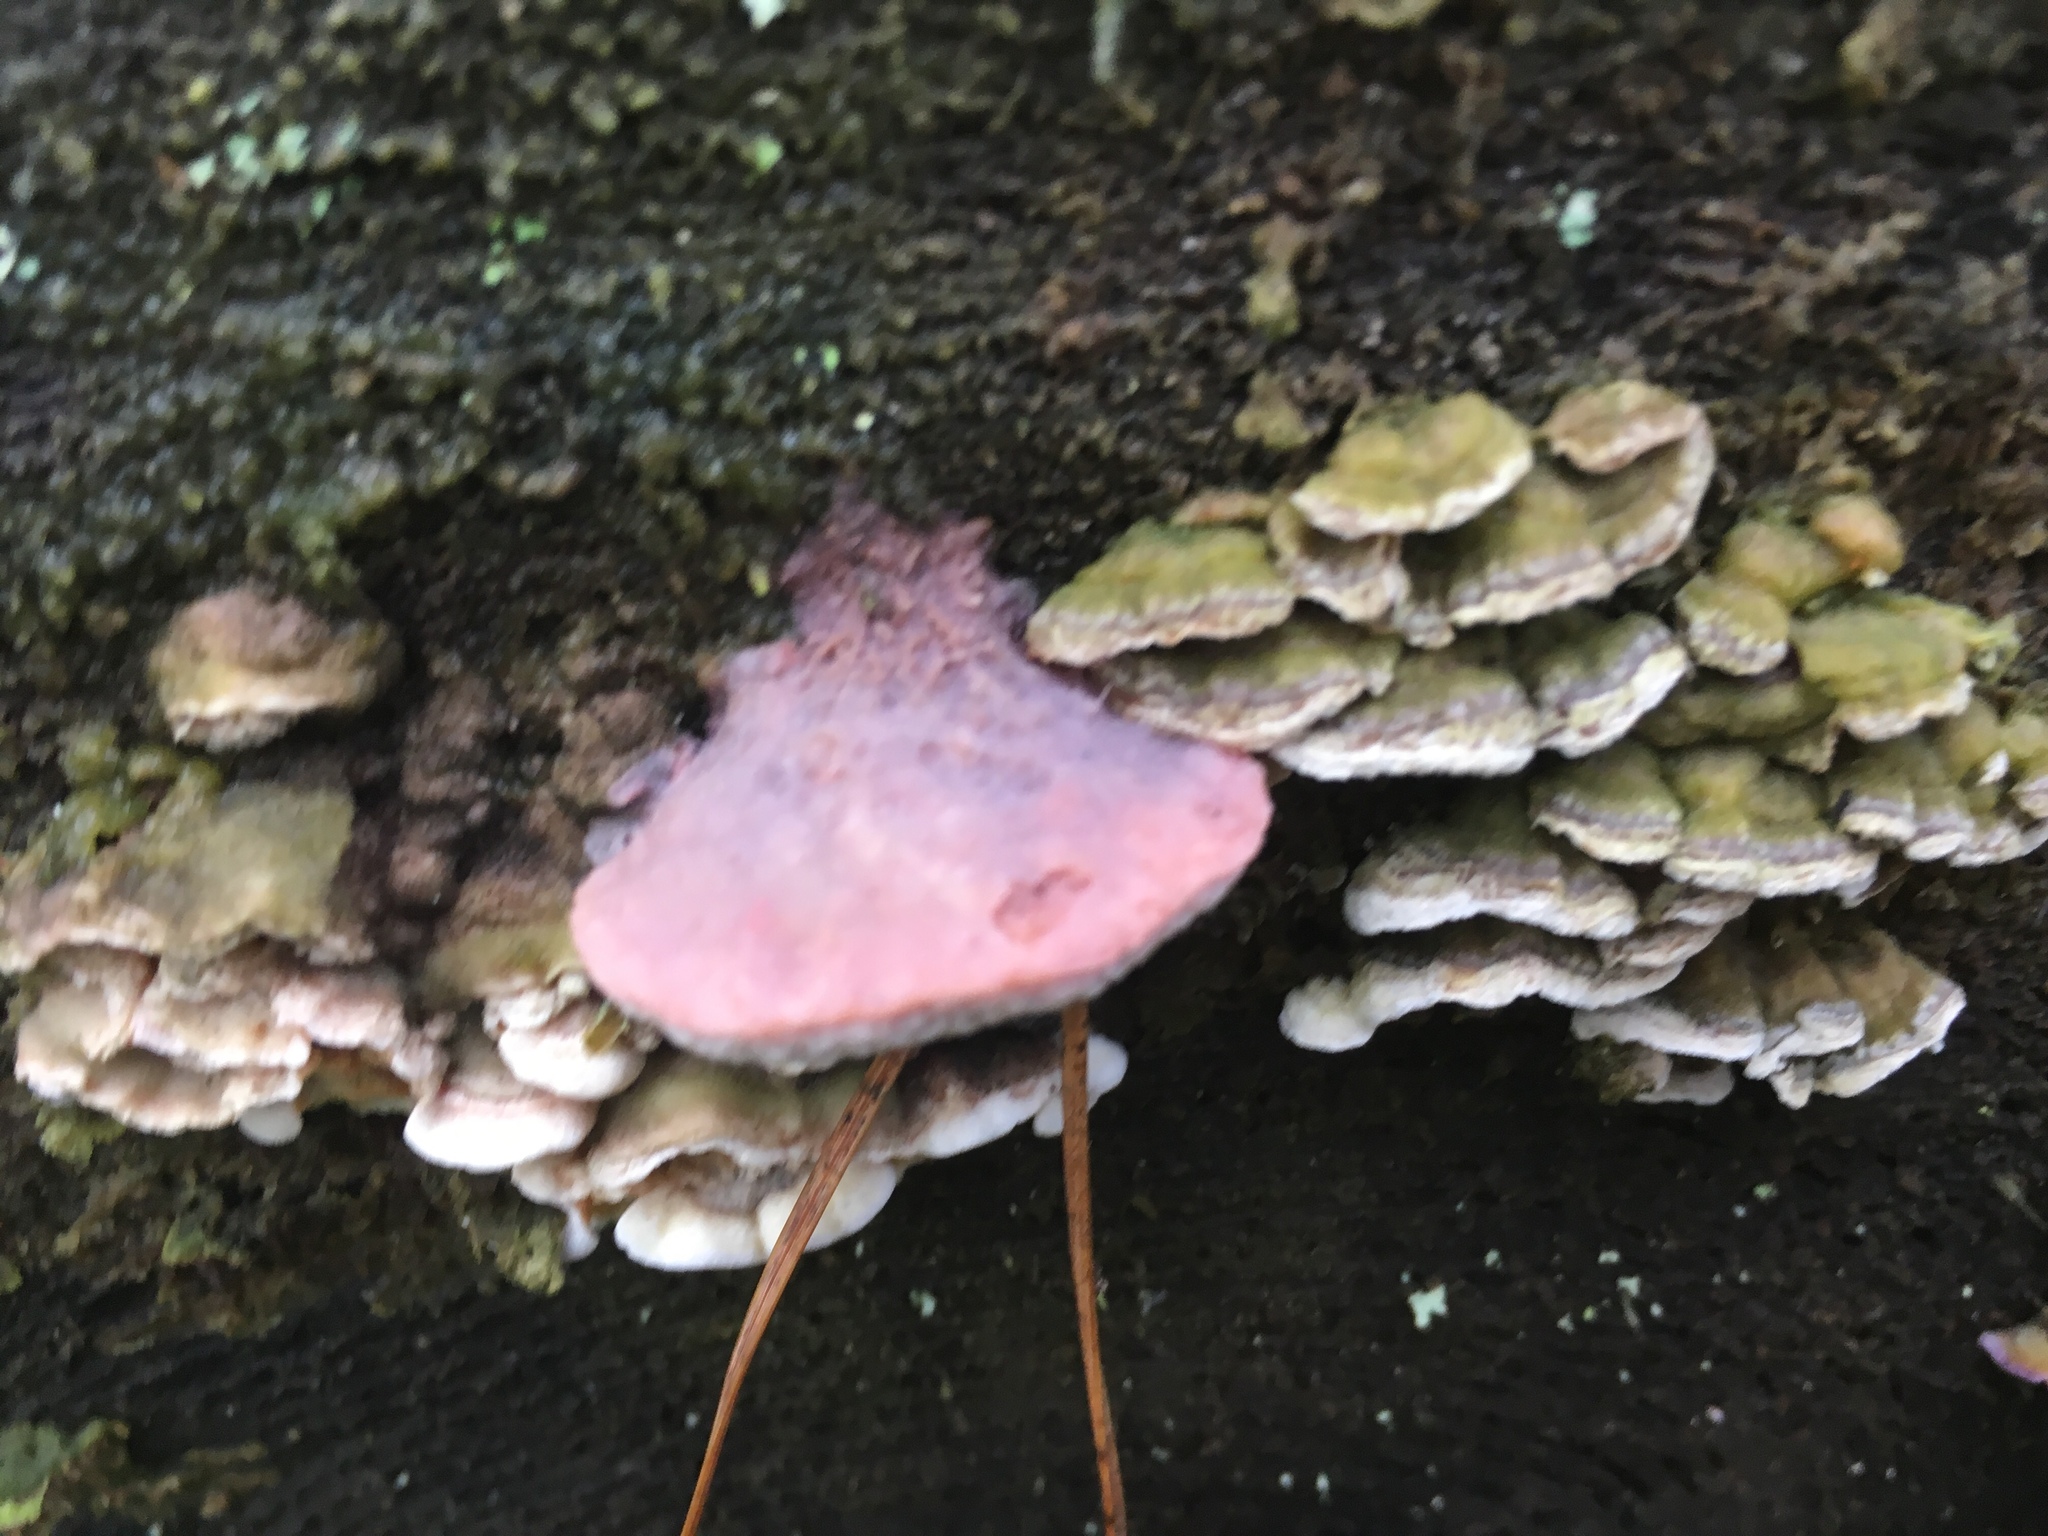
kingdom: Fungi
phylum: Basidiomycota
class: Agaricomycetes
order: Polyporales
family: Irpicaceae
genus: Leptoporus
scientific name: Leptoporus mollis
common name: Soft bracket
